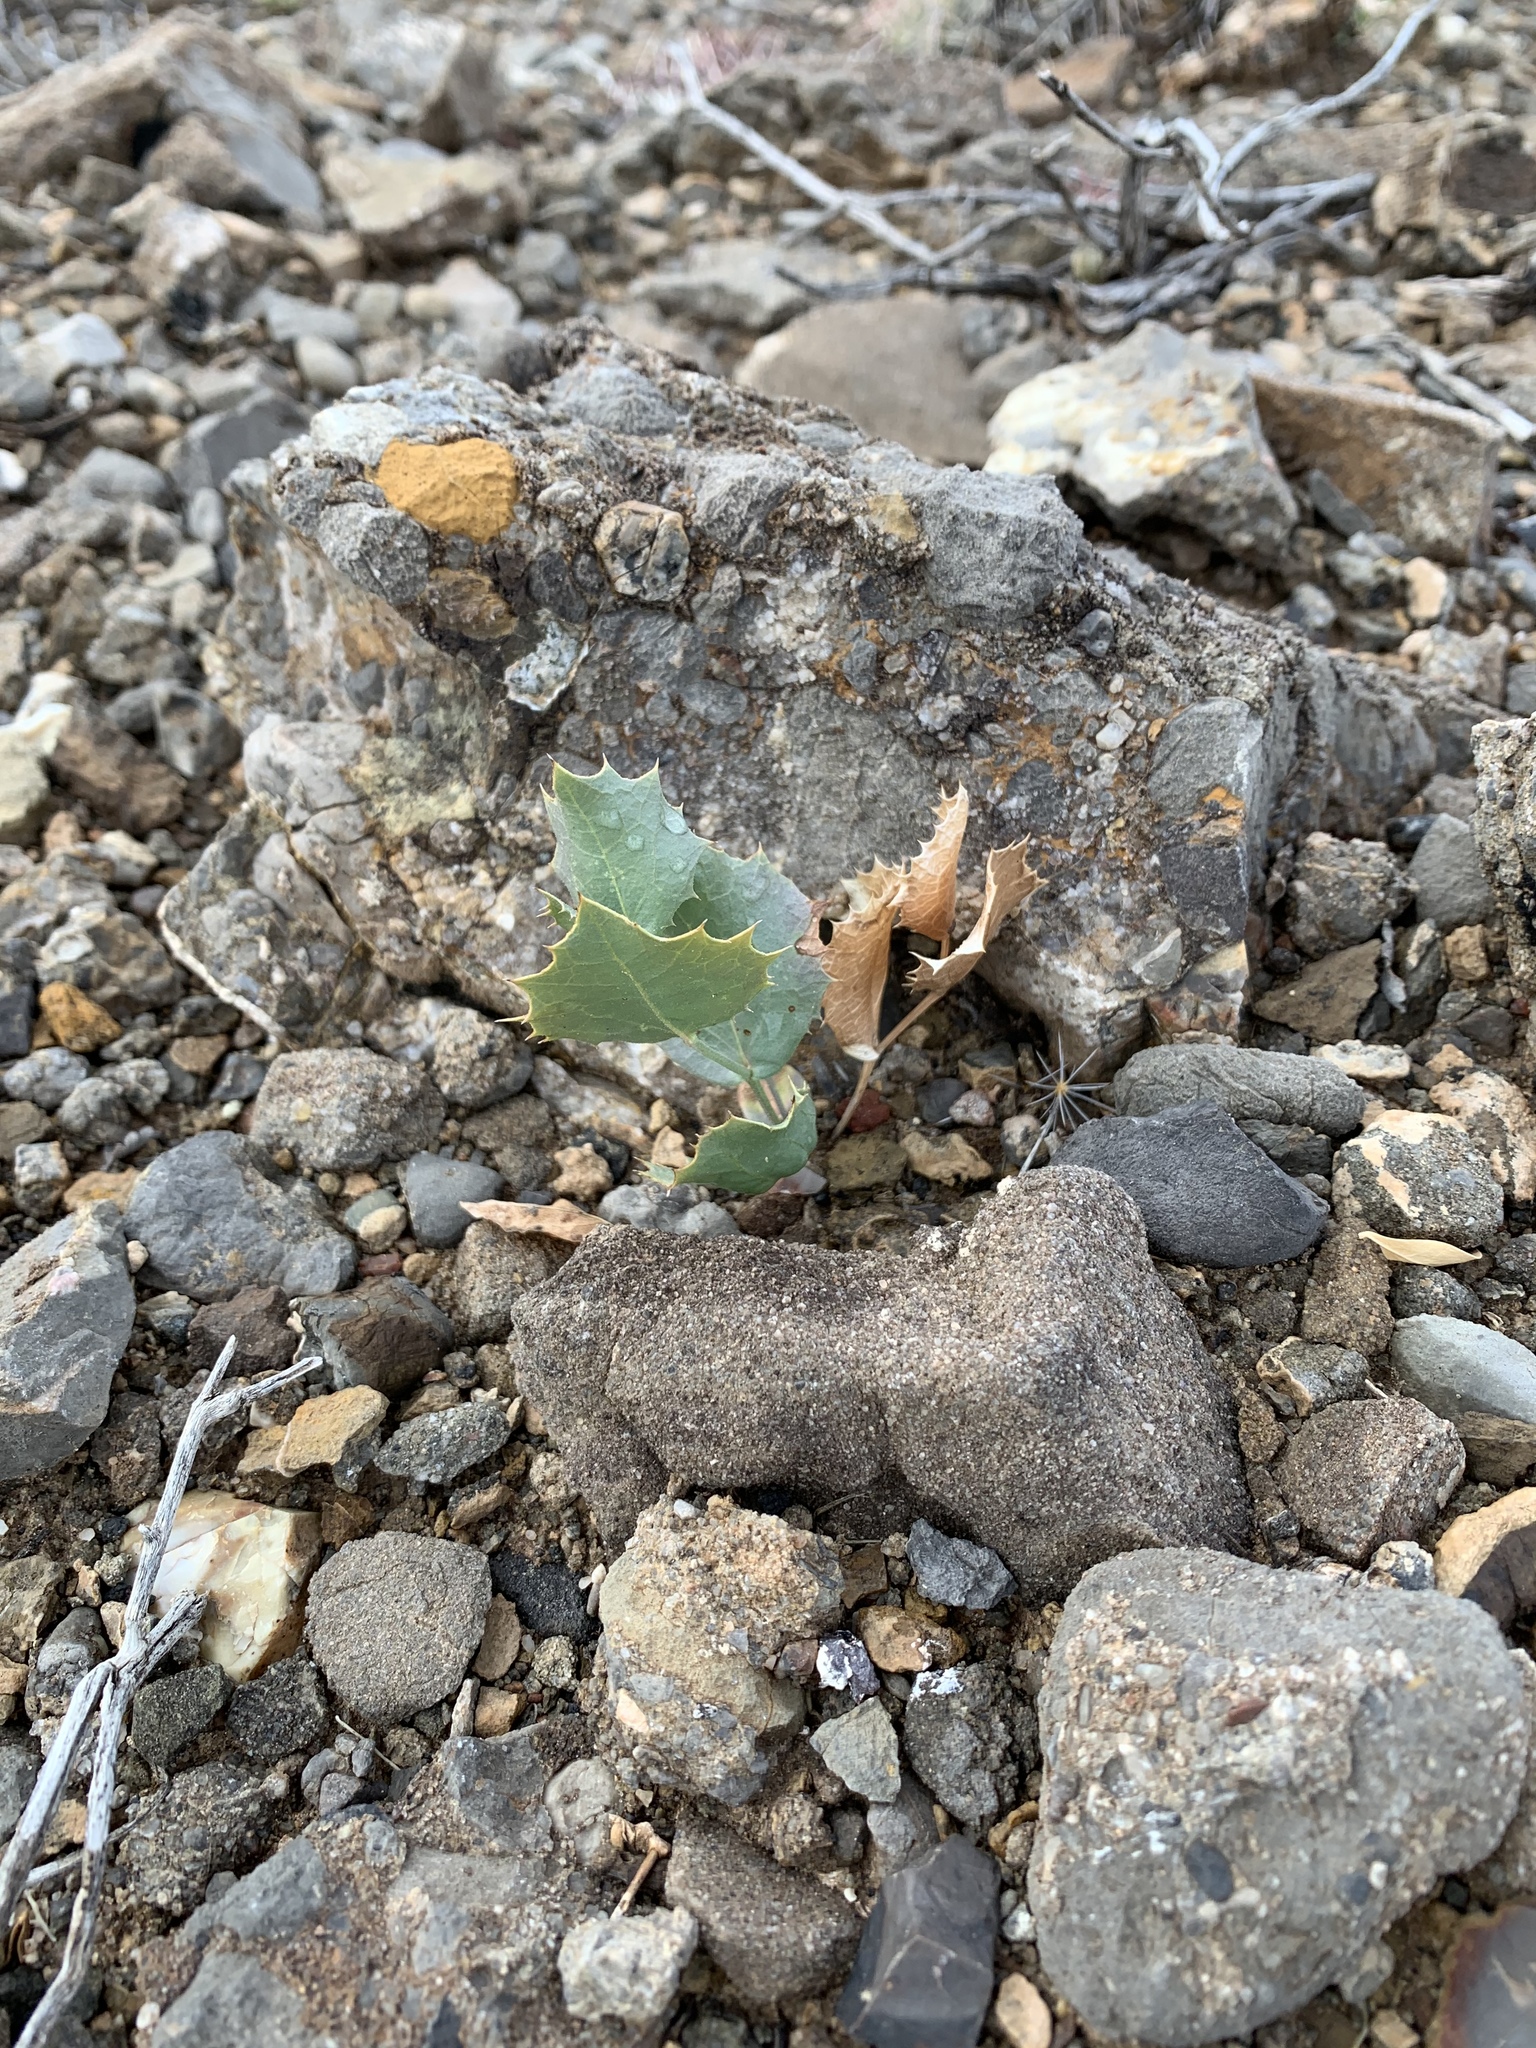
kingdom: Plantae
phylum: Tracheophyta
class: Magnoliopsida
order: Asterales
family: Asteraceae
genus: Acourtia
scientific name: Acourtia nana
